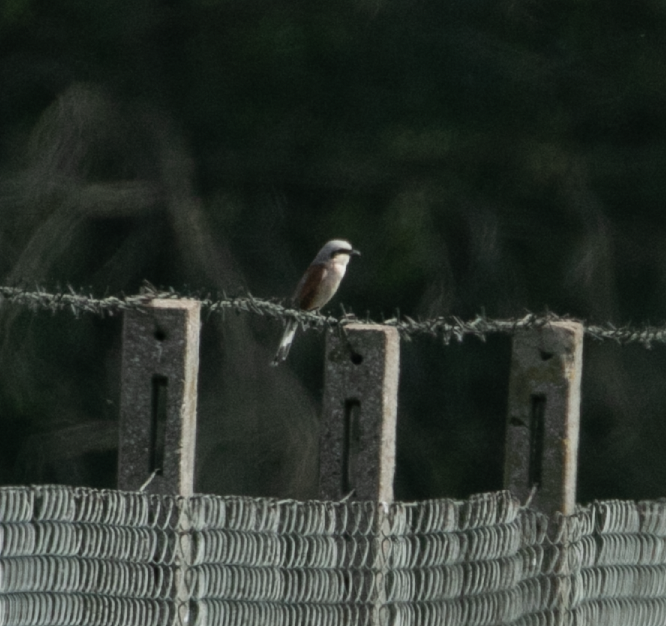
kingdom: Animalia
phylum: Chordata
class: Aves
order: Passeriformes
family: Laniidae
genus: Lanius
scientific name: Lanius collurio
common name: Red-backed shrike
